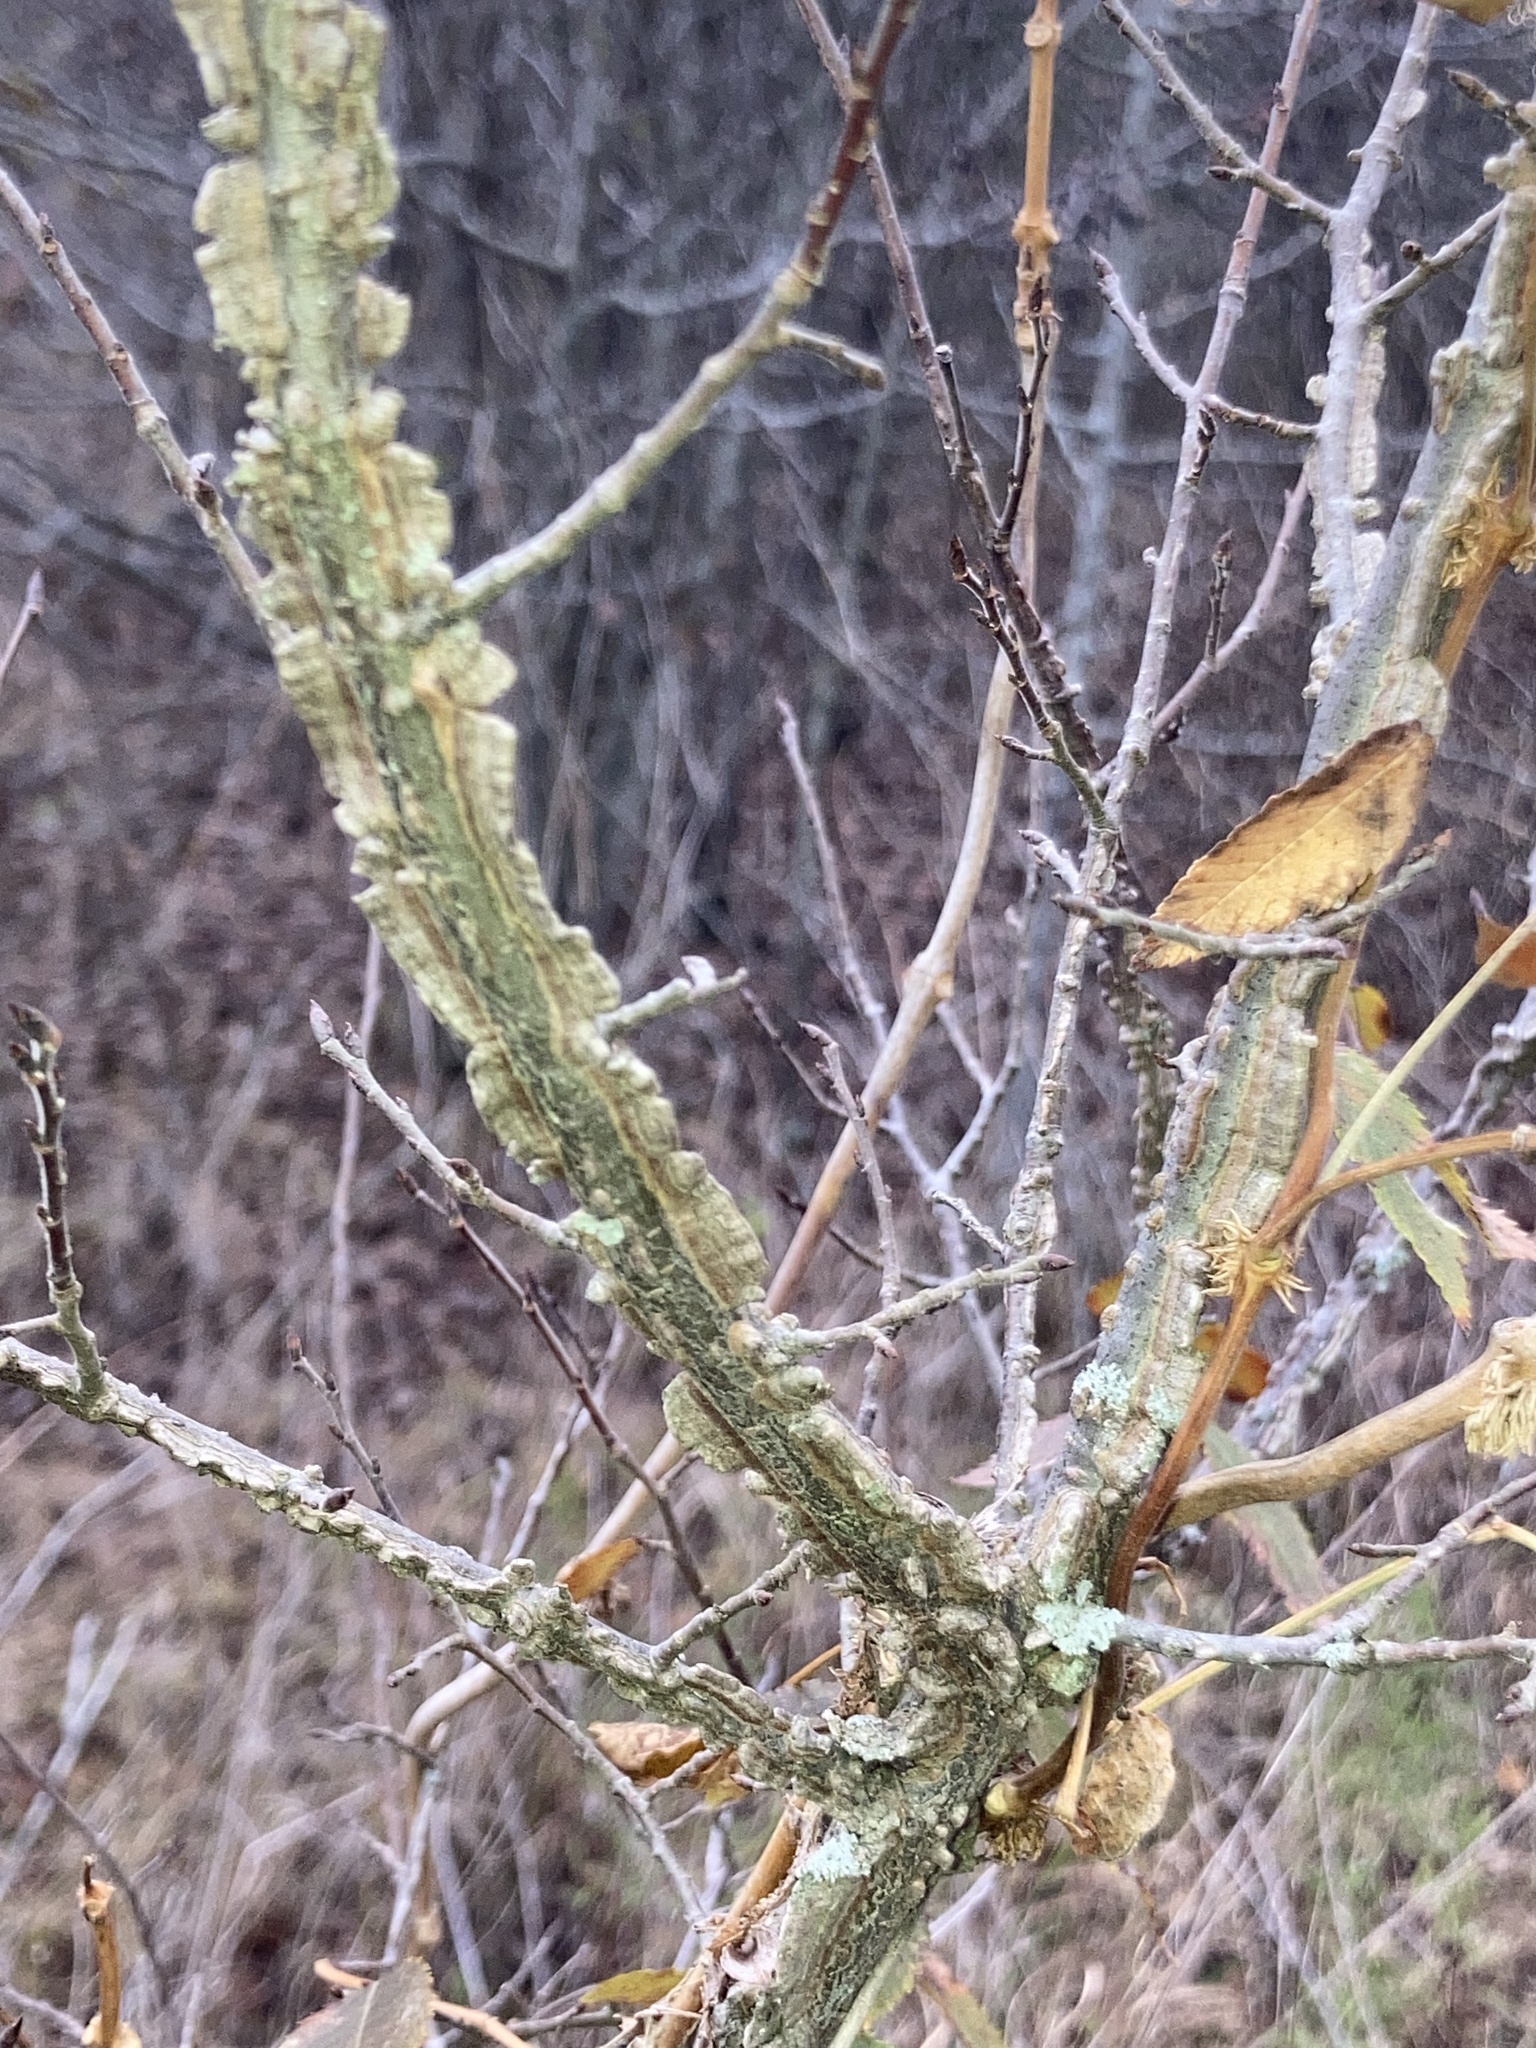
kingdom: Plantae
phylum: Tracheophyta
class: Magnoliopsida
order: Rosales
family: Ulmaceae
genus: Ulmus
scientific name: Ulmus alata
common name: Winged elm
